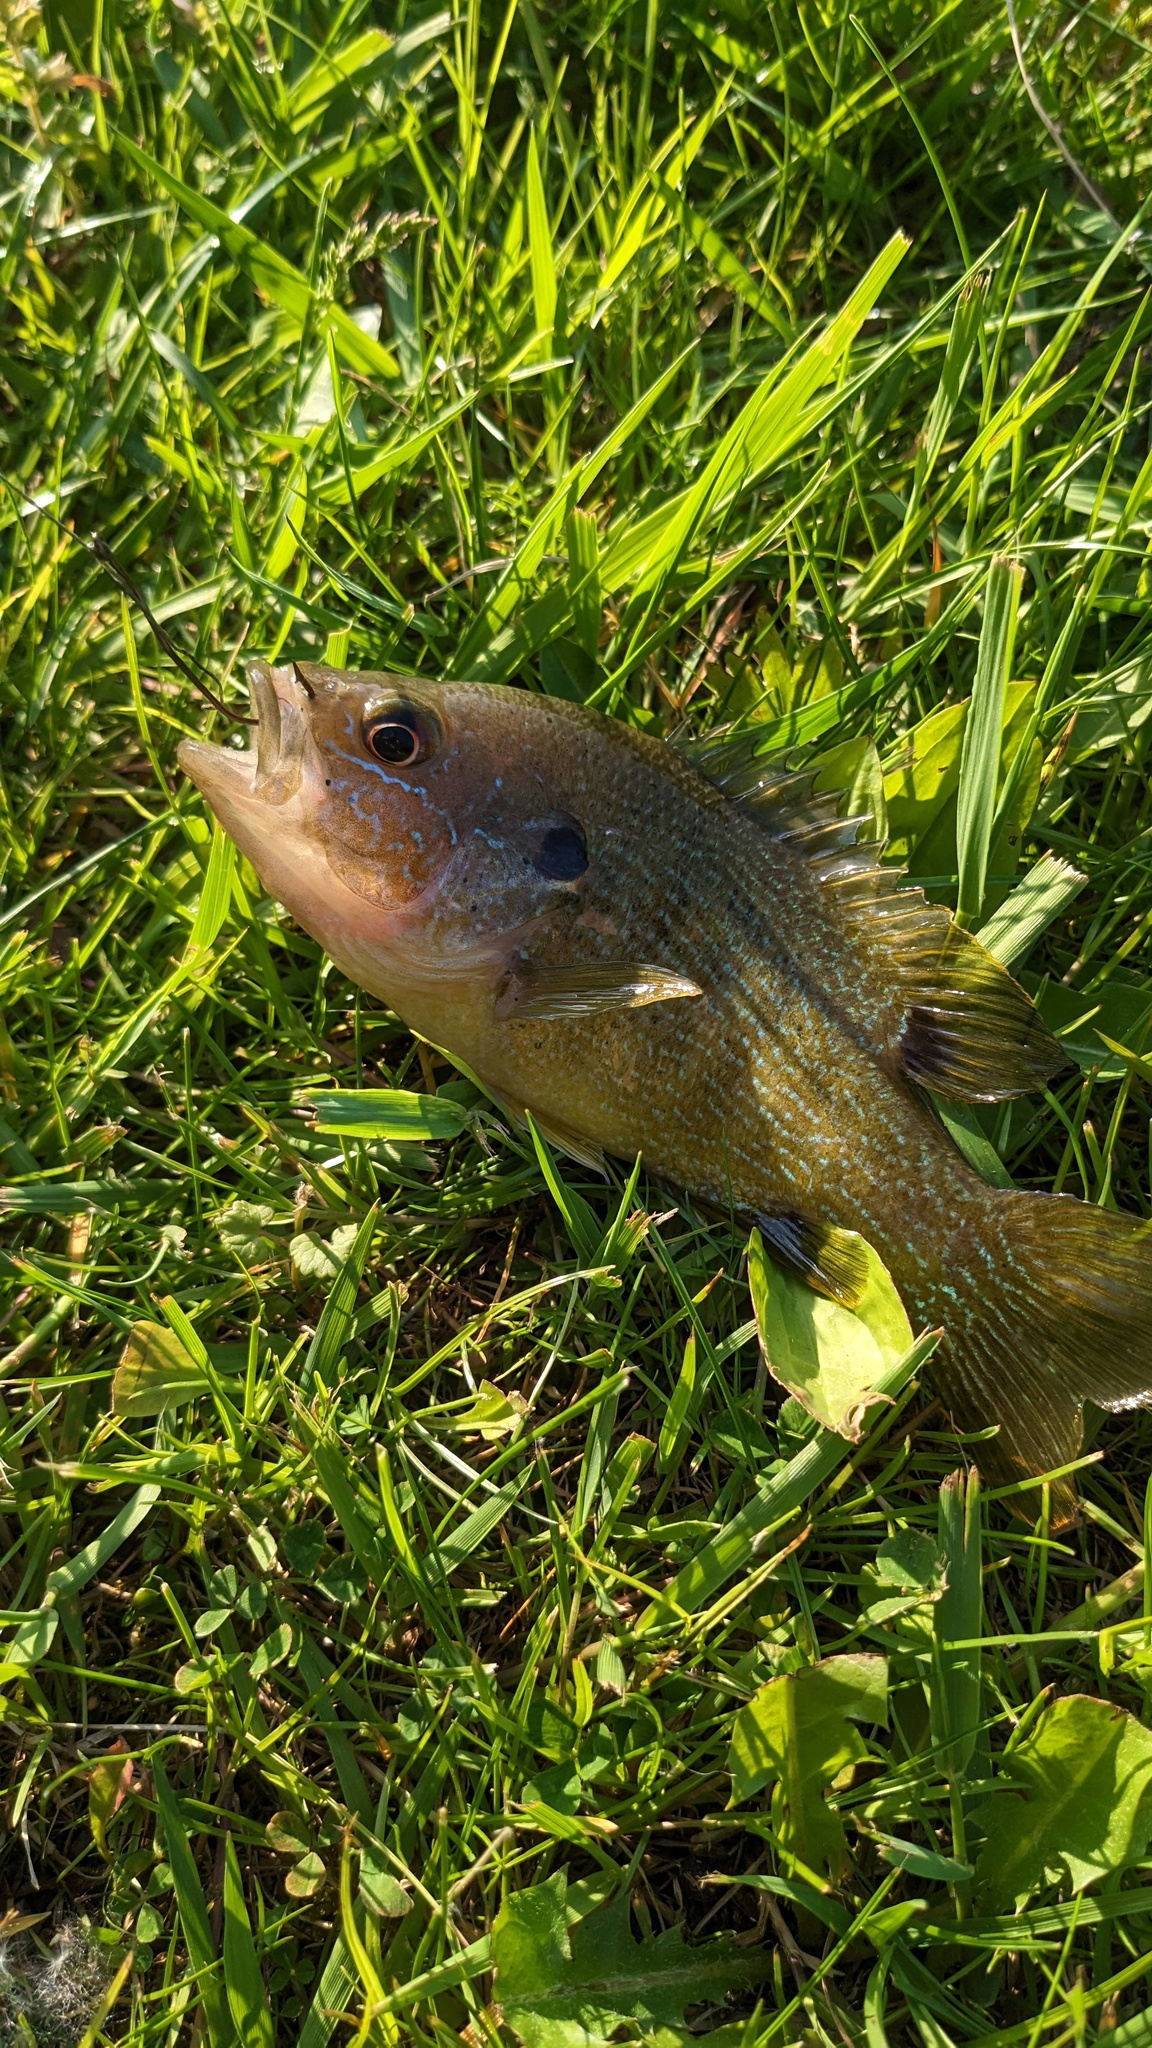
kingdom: Animalia
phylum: Chordata
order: Perciformes
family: Centrarchidae
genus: Lepomis
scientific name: Lepomis cyanellus
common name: Green sunfish
